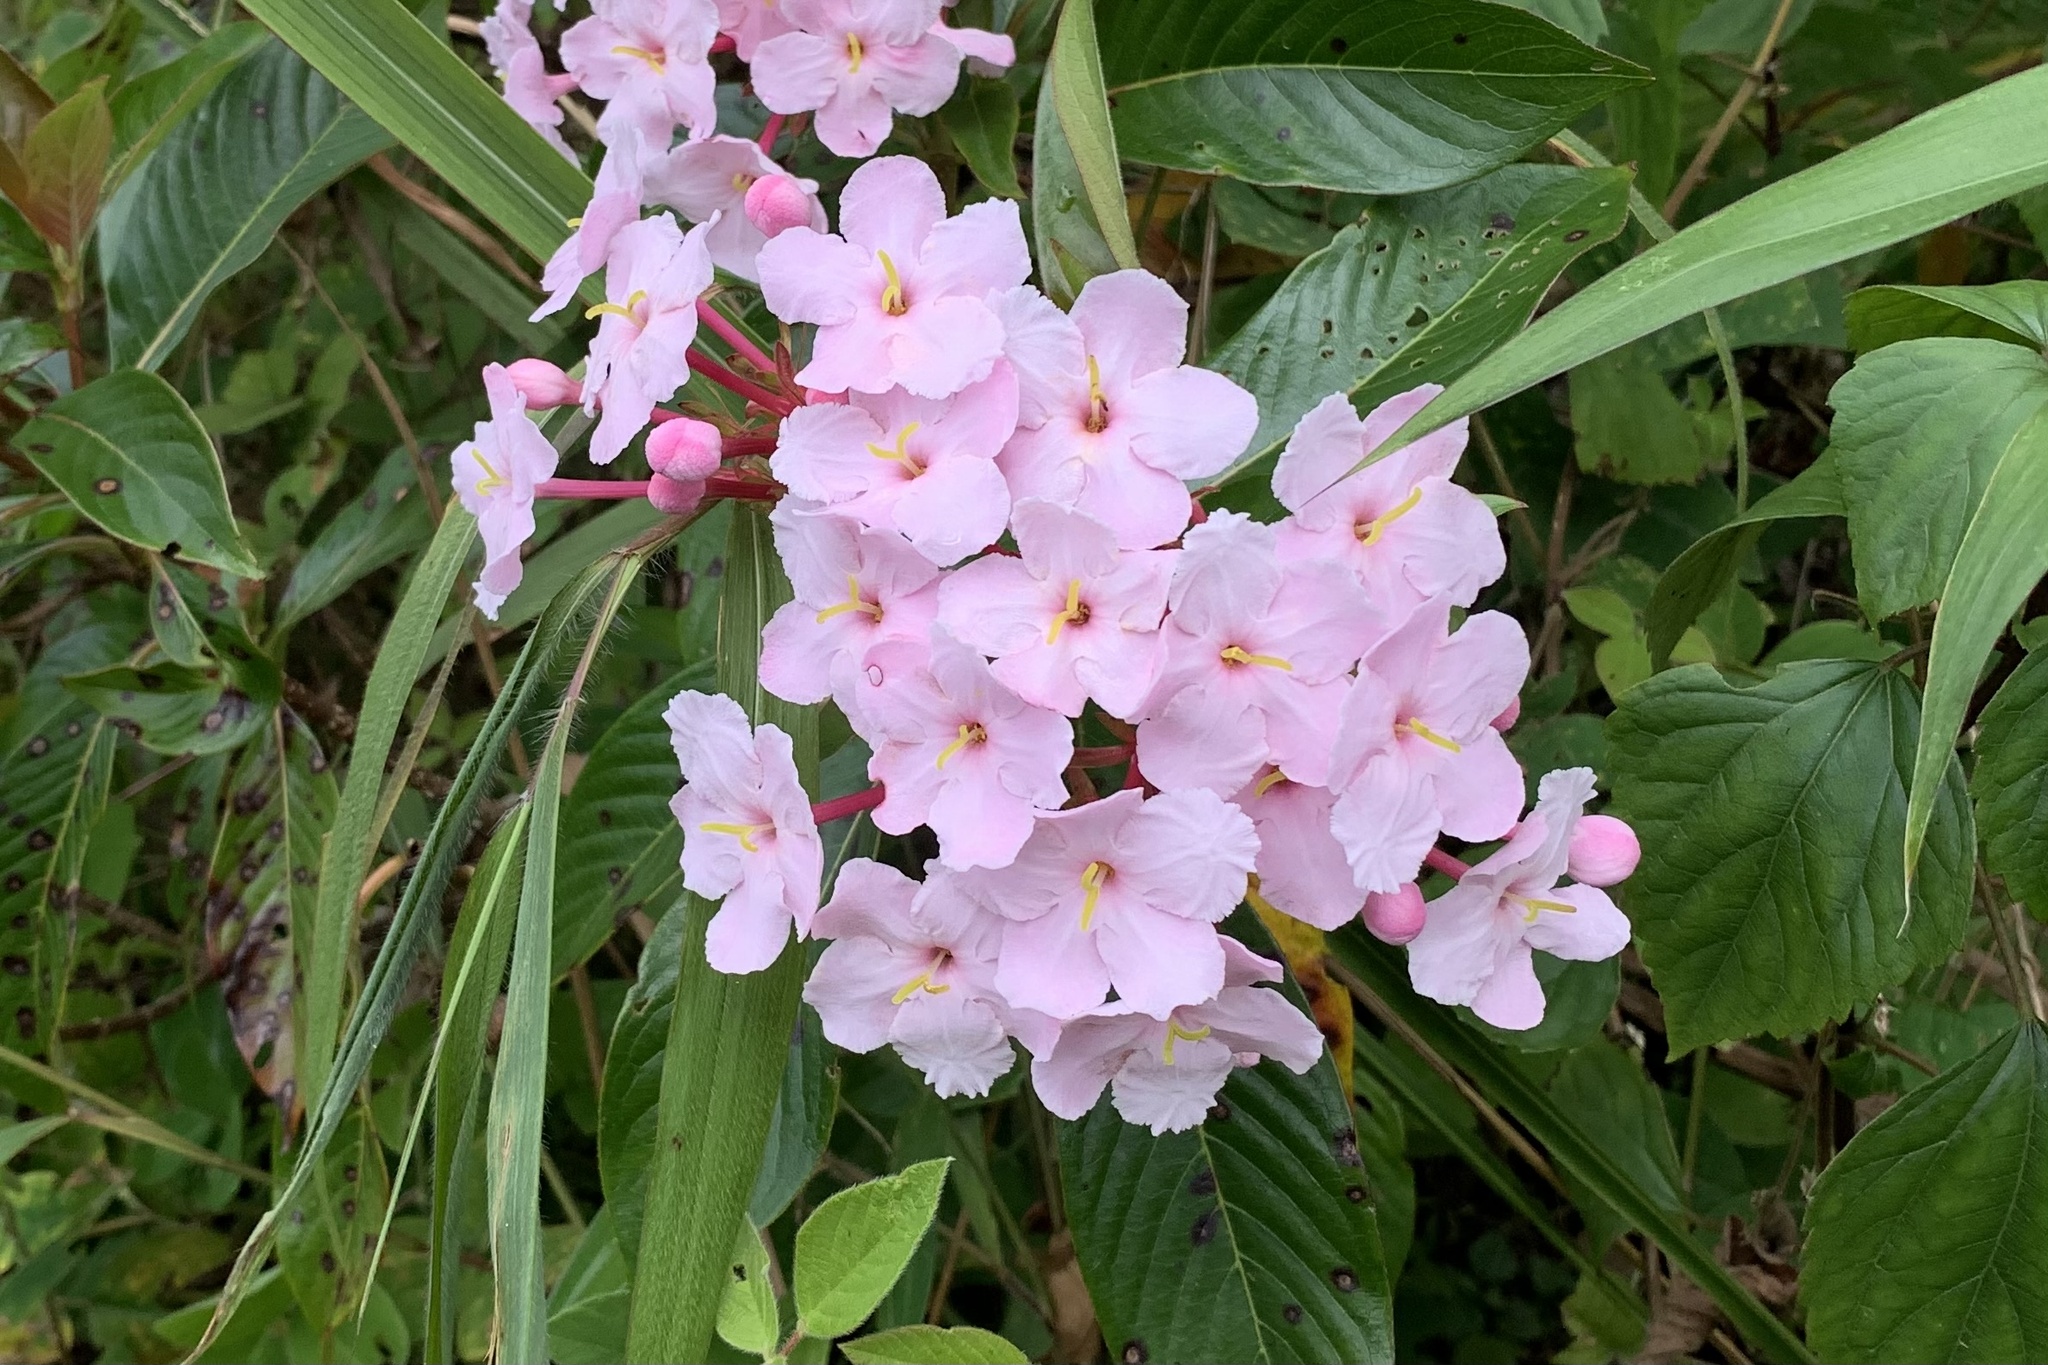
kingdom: Plantae
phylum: Tracheophyta
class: Magnoliopsida
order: Gentianales
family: Rubiaceae
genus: Luculia
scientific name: Luculia gratissima
